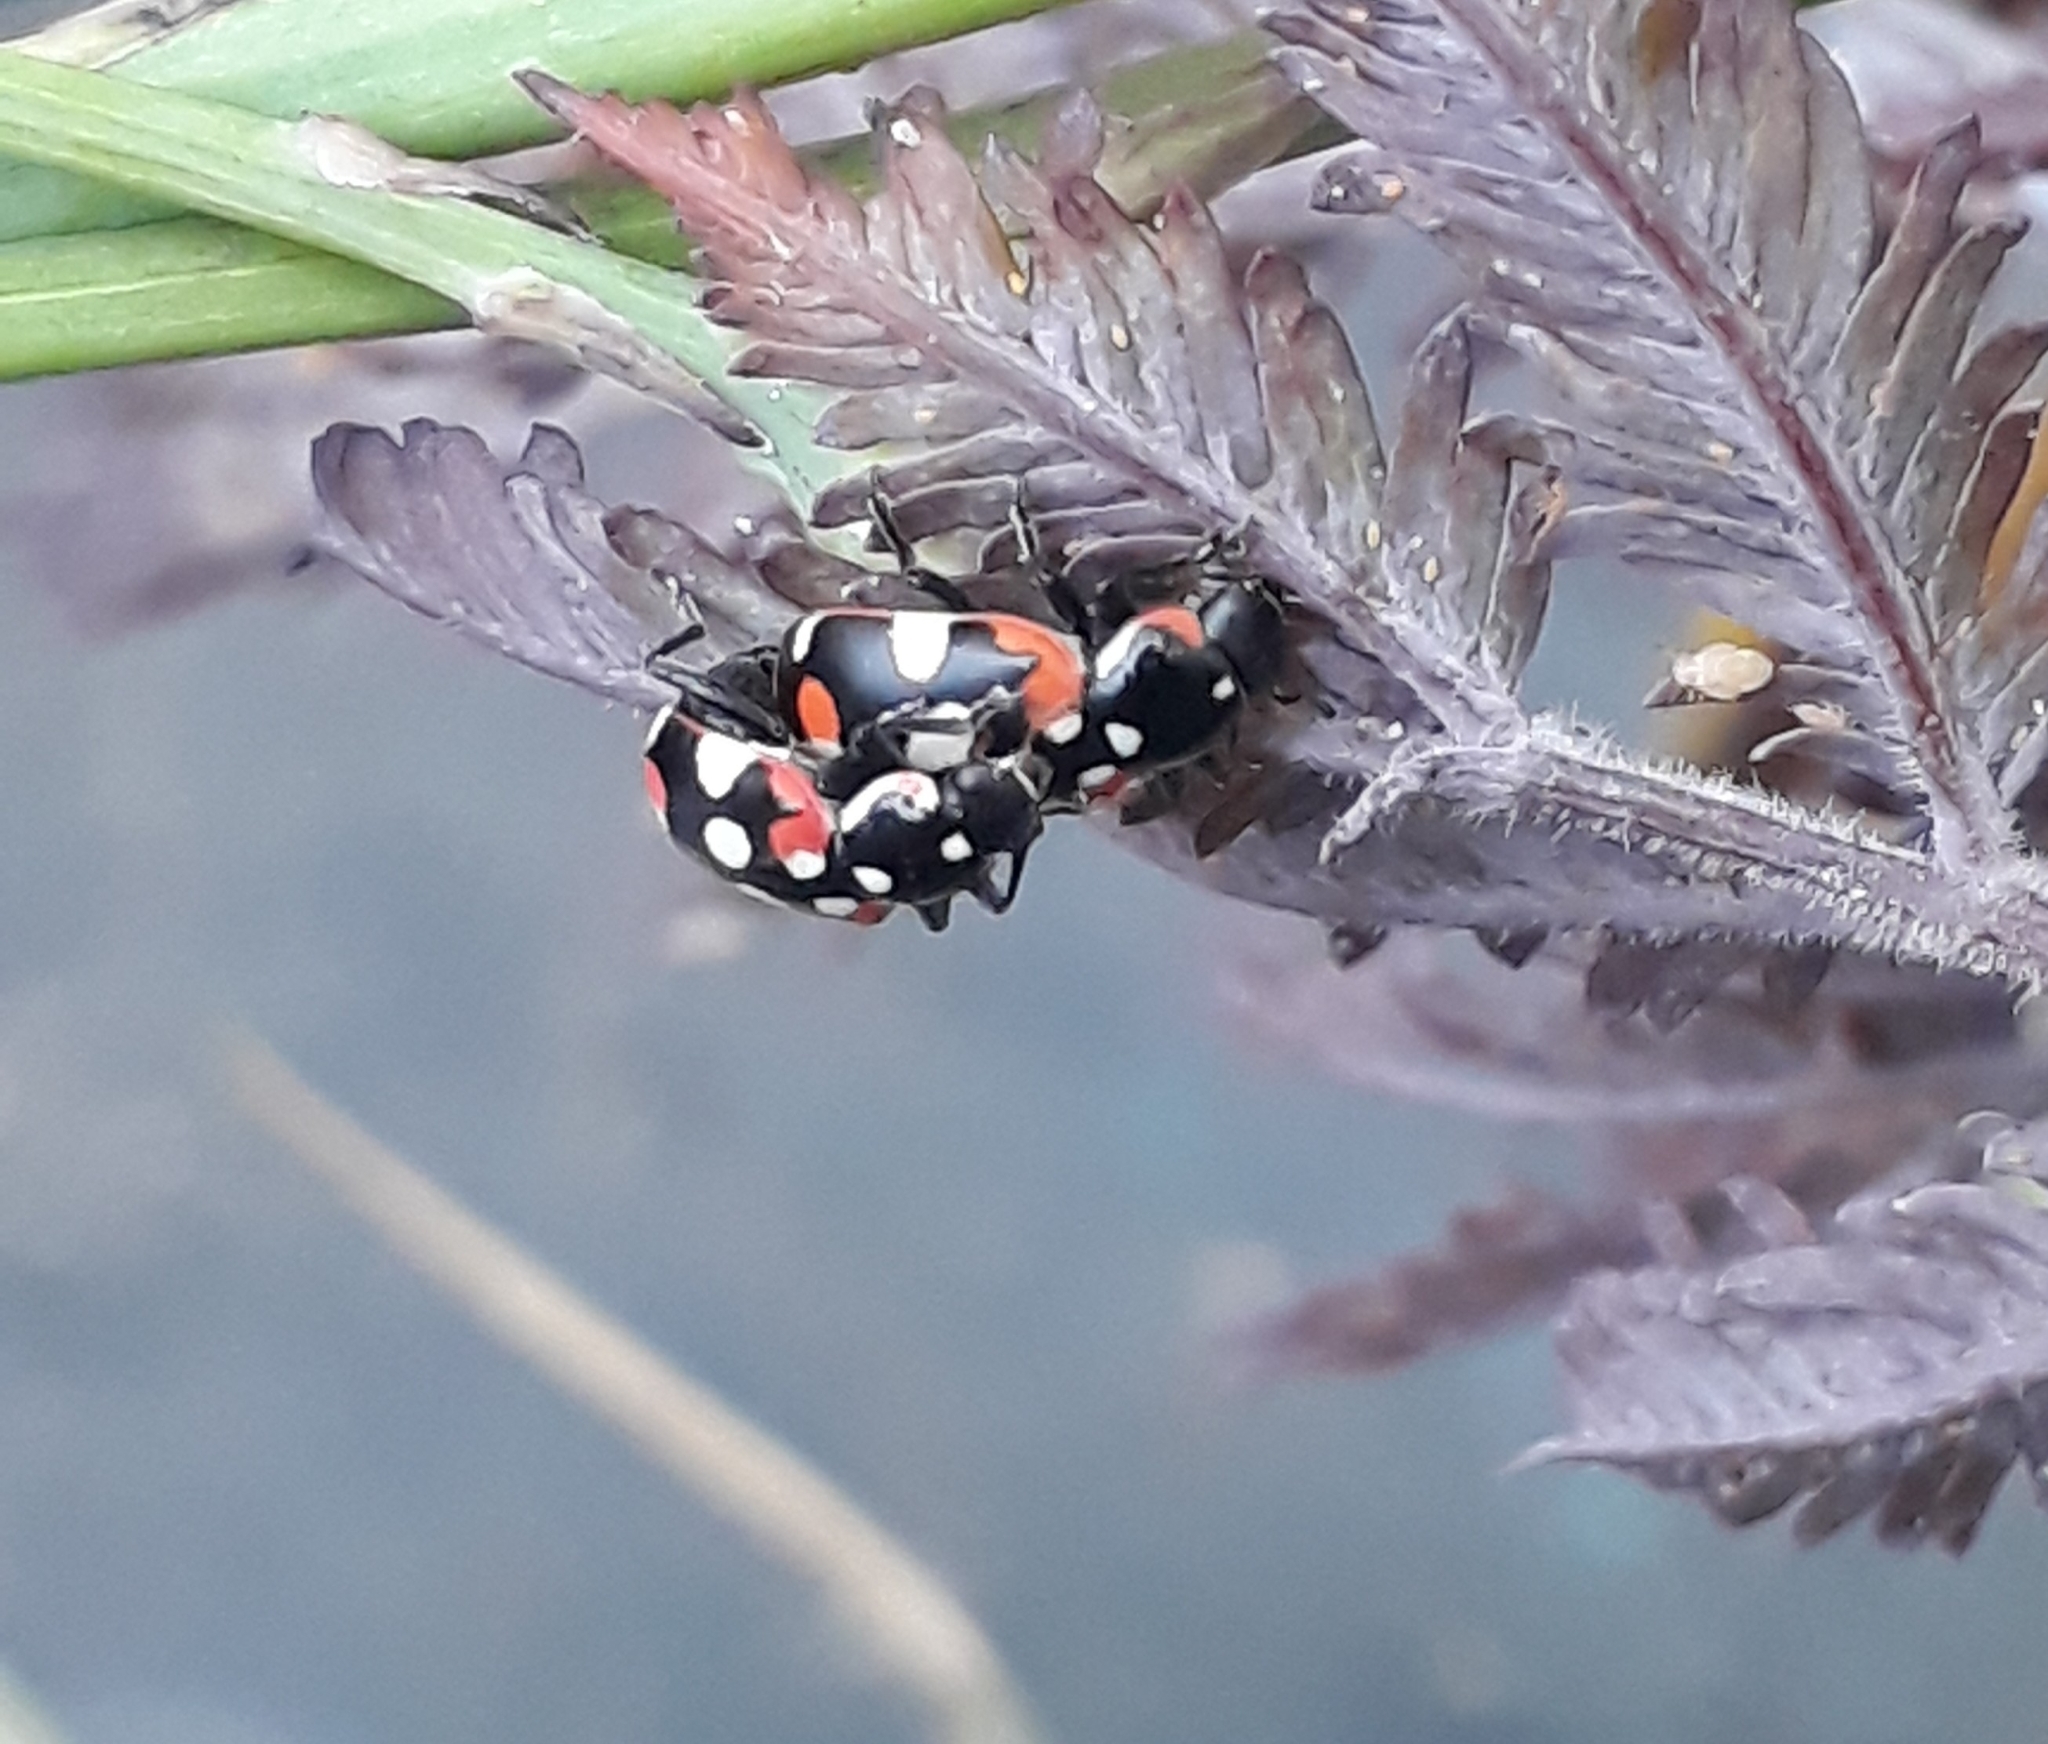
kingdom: Animalia
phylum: Arthropoda
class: Insecta
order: Coleoptera
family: Coccinellidae
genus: Eriopis
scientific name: Eriopis connexa
